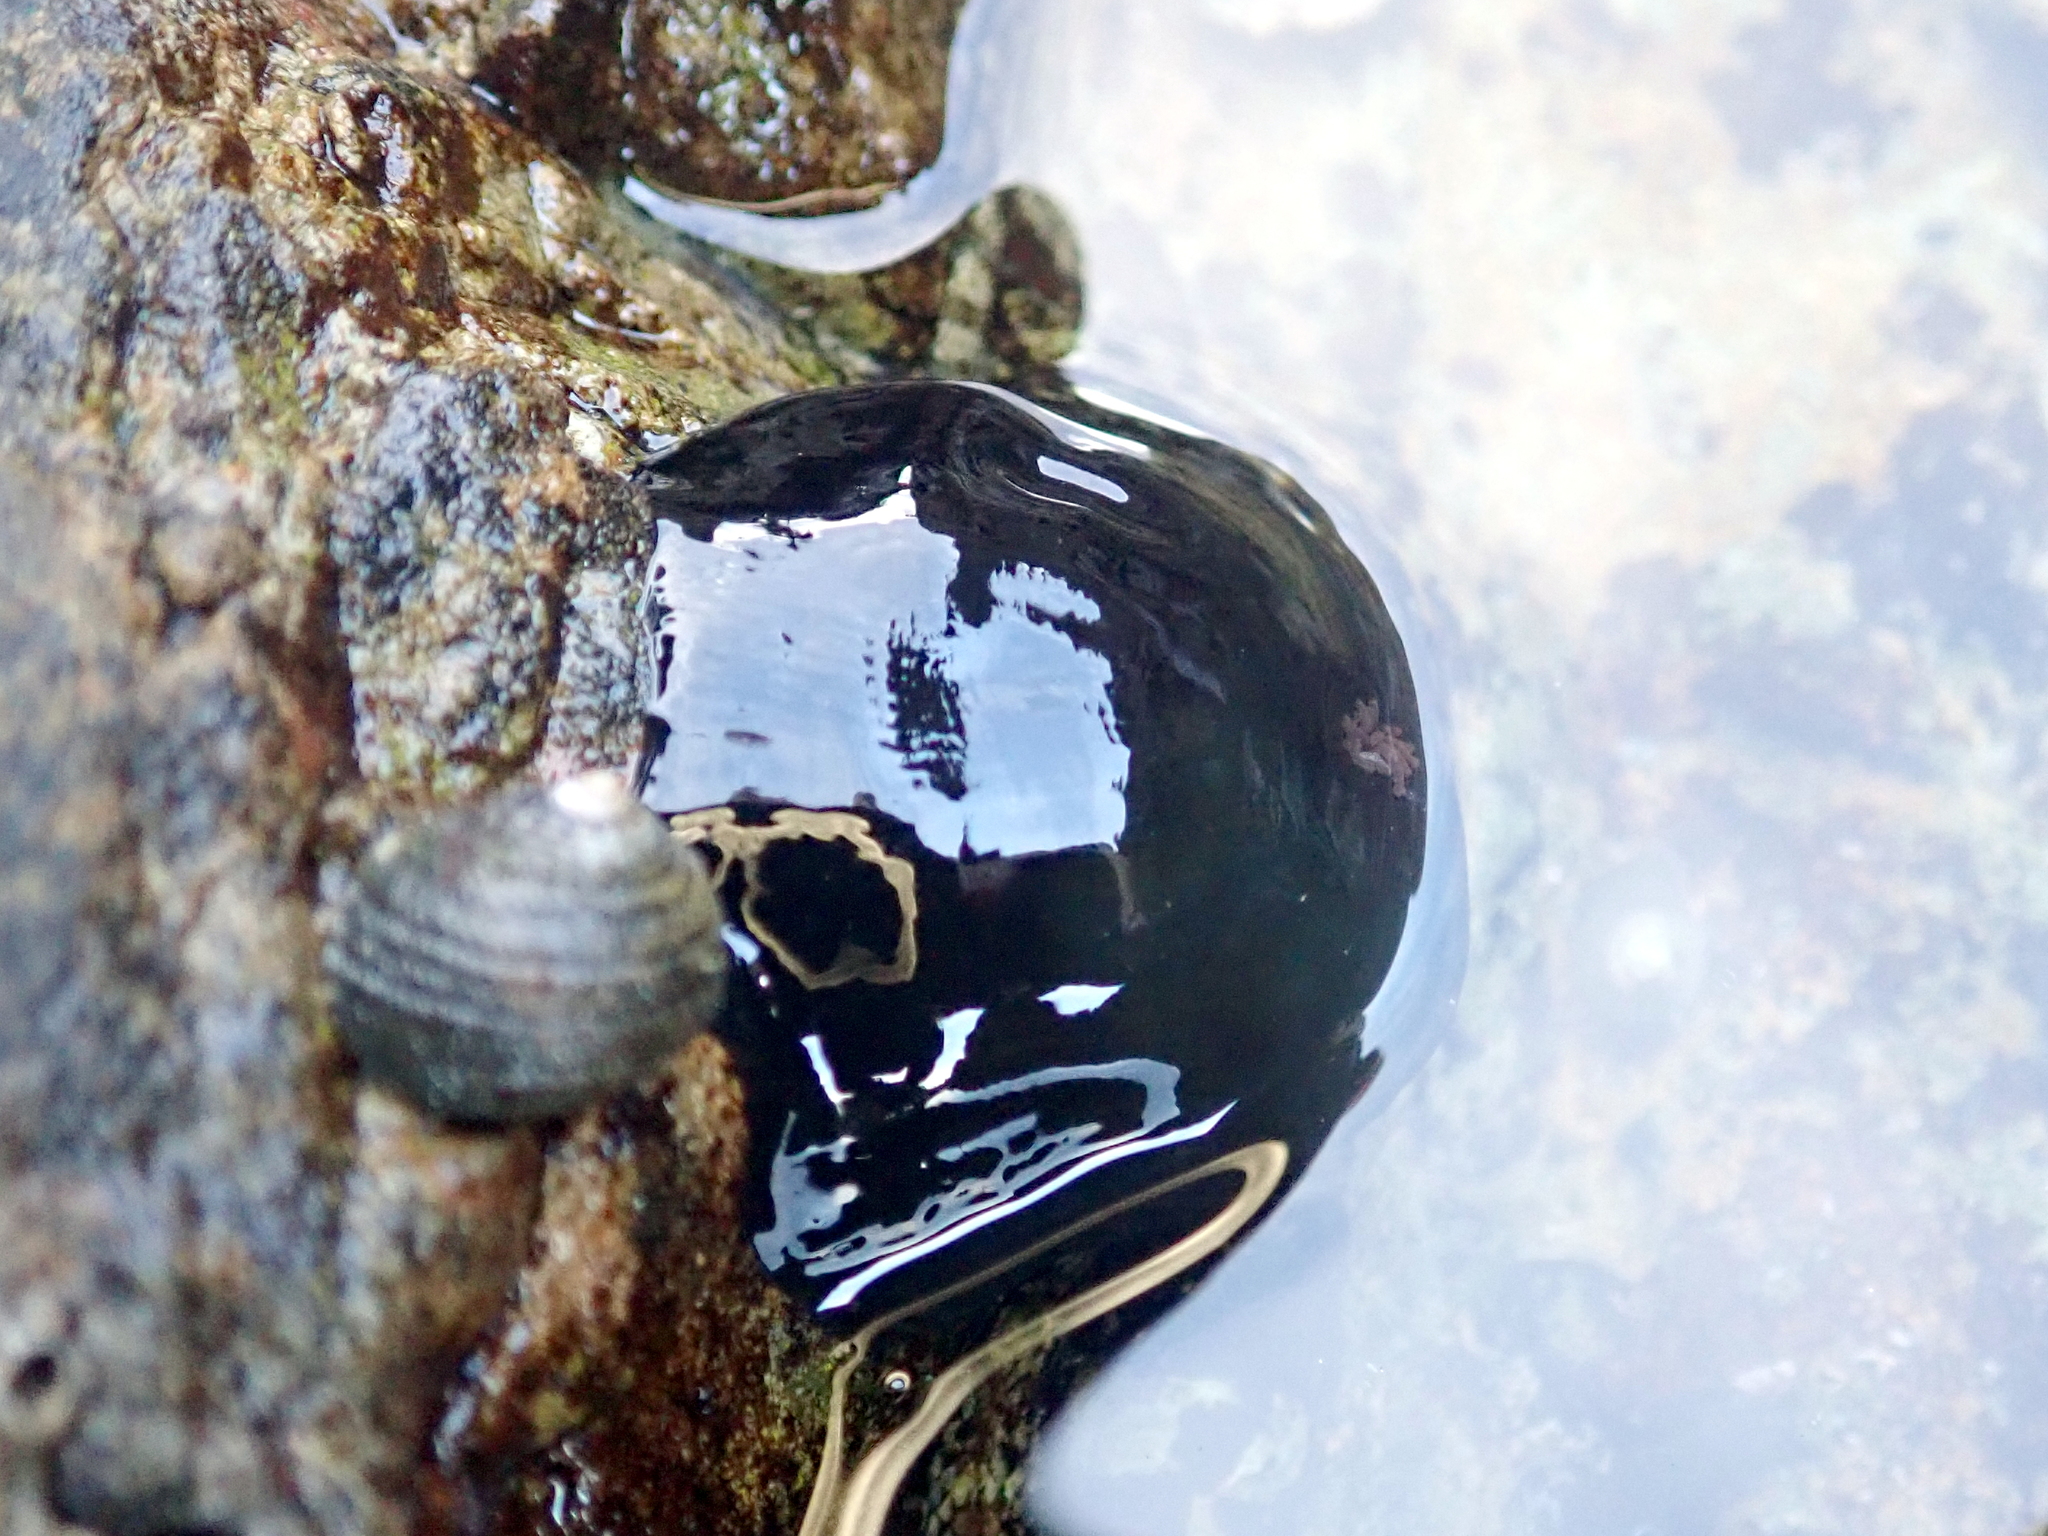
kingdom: Animalia
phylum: Cnidaria
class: Anthozoa
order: Actiniaria
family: Actiniidae
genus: Actinia
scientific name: Actinia tenebrosa
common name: Waratah anemone
